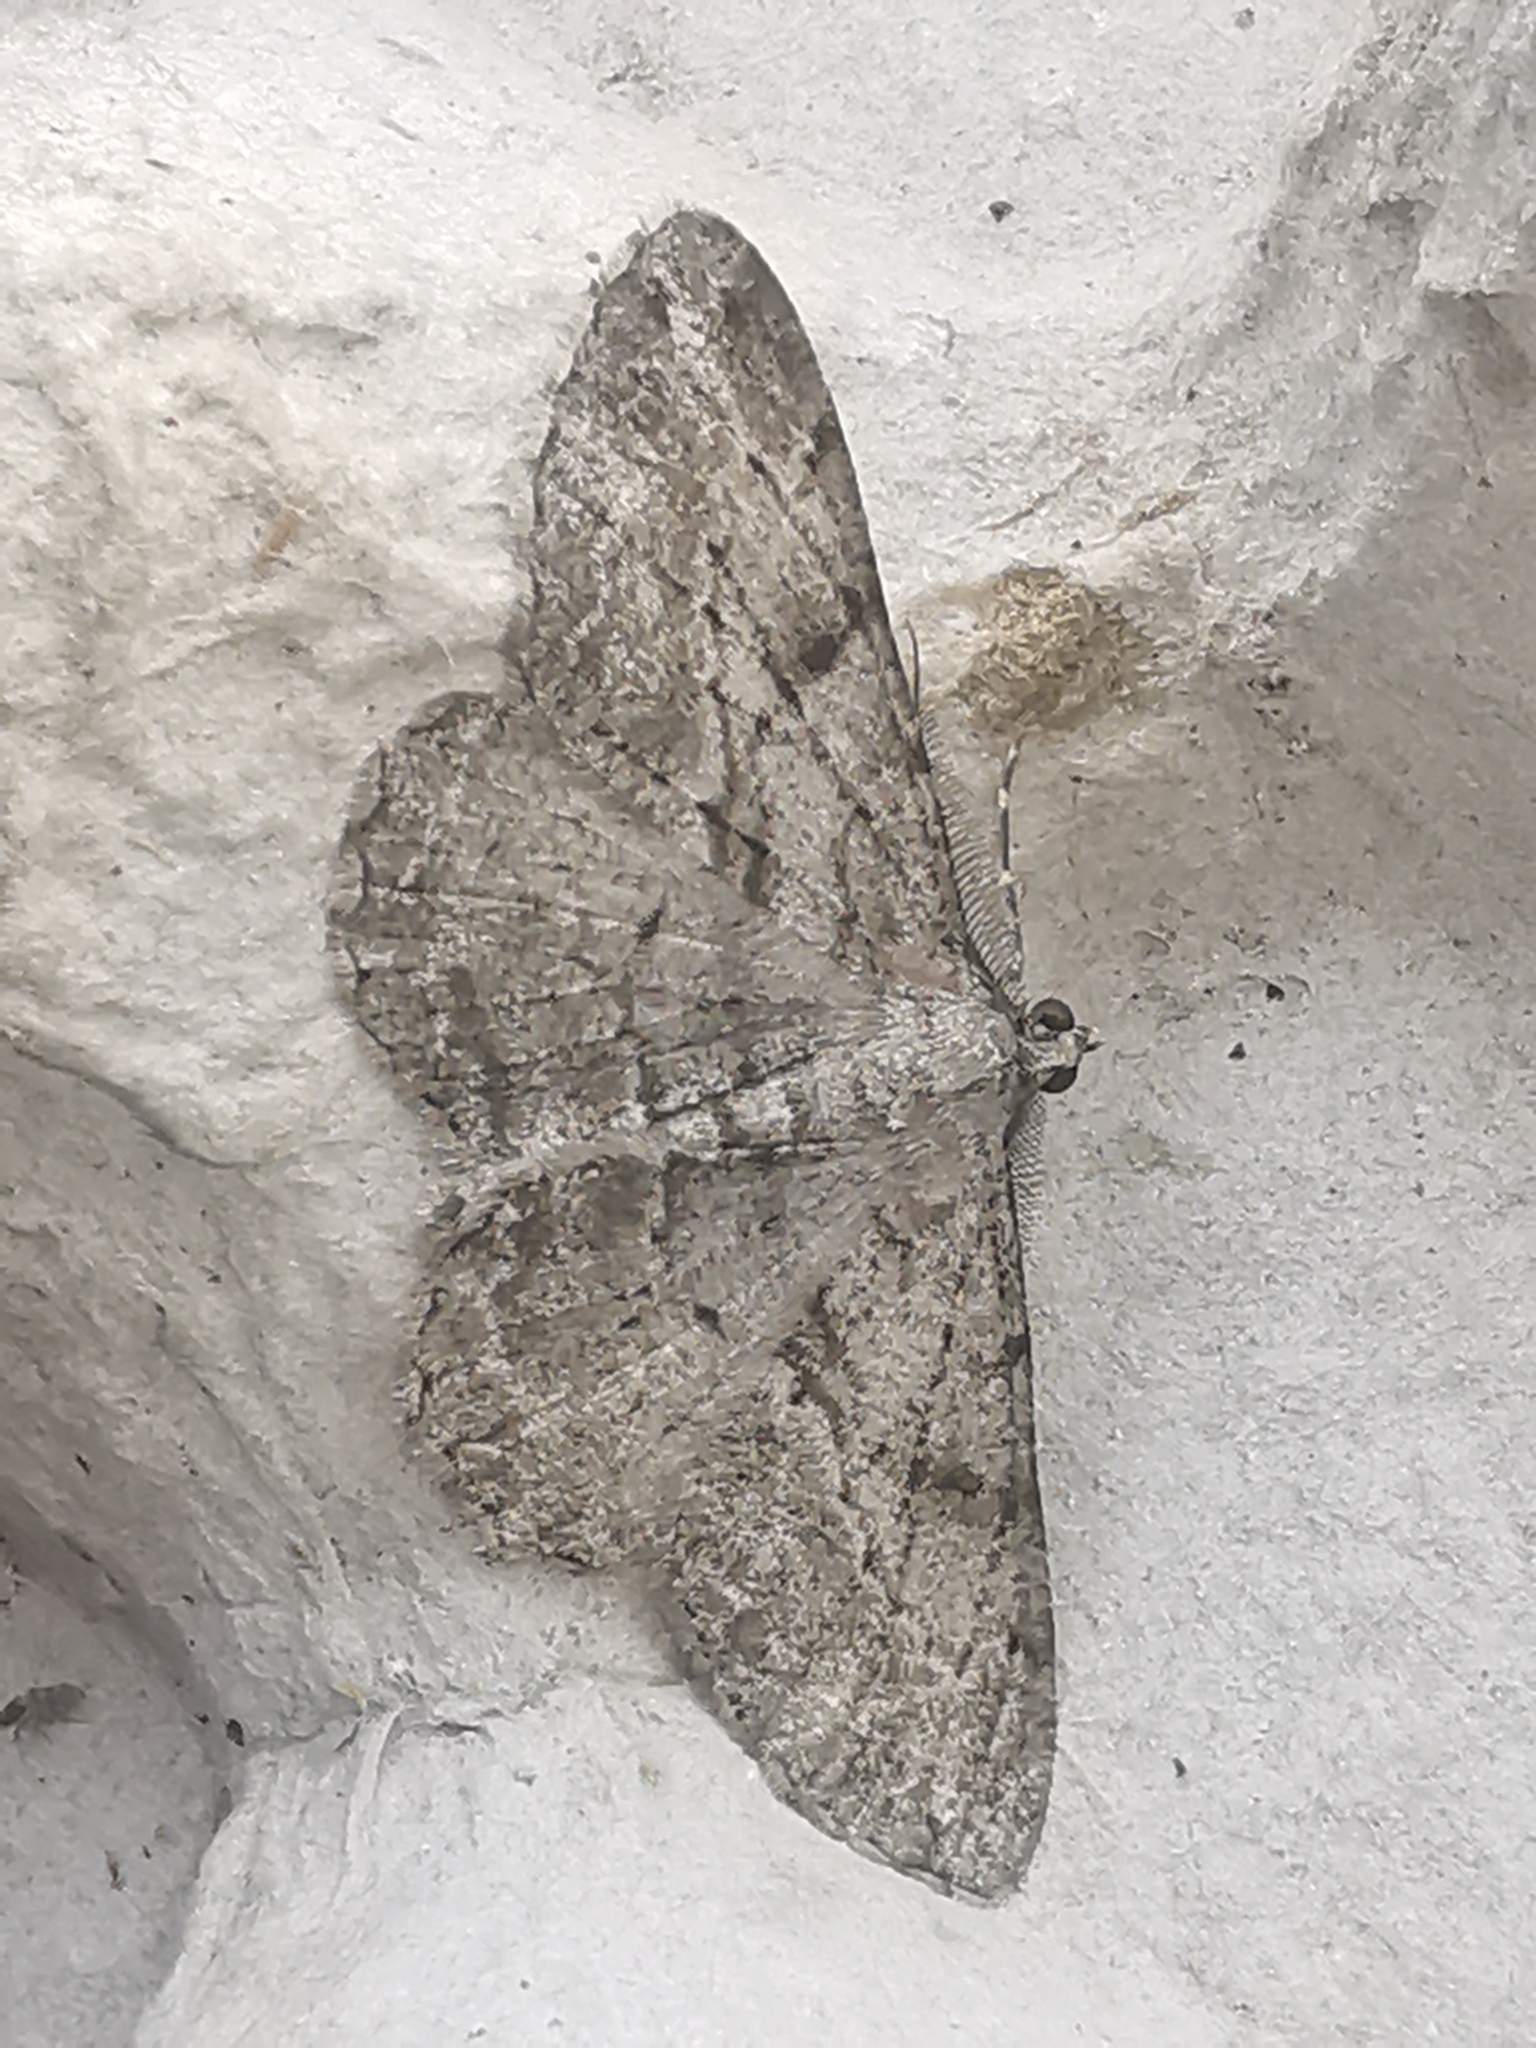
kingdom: Animalia
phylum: Arthropoda
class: Insecta
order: Lepidoptera
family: Geometridae
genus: Peribatodes
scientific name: Peribatodes rhomboidaria
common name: Willow beauty
